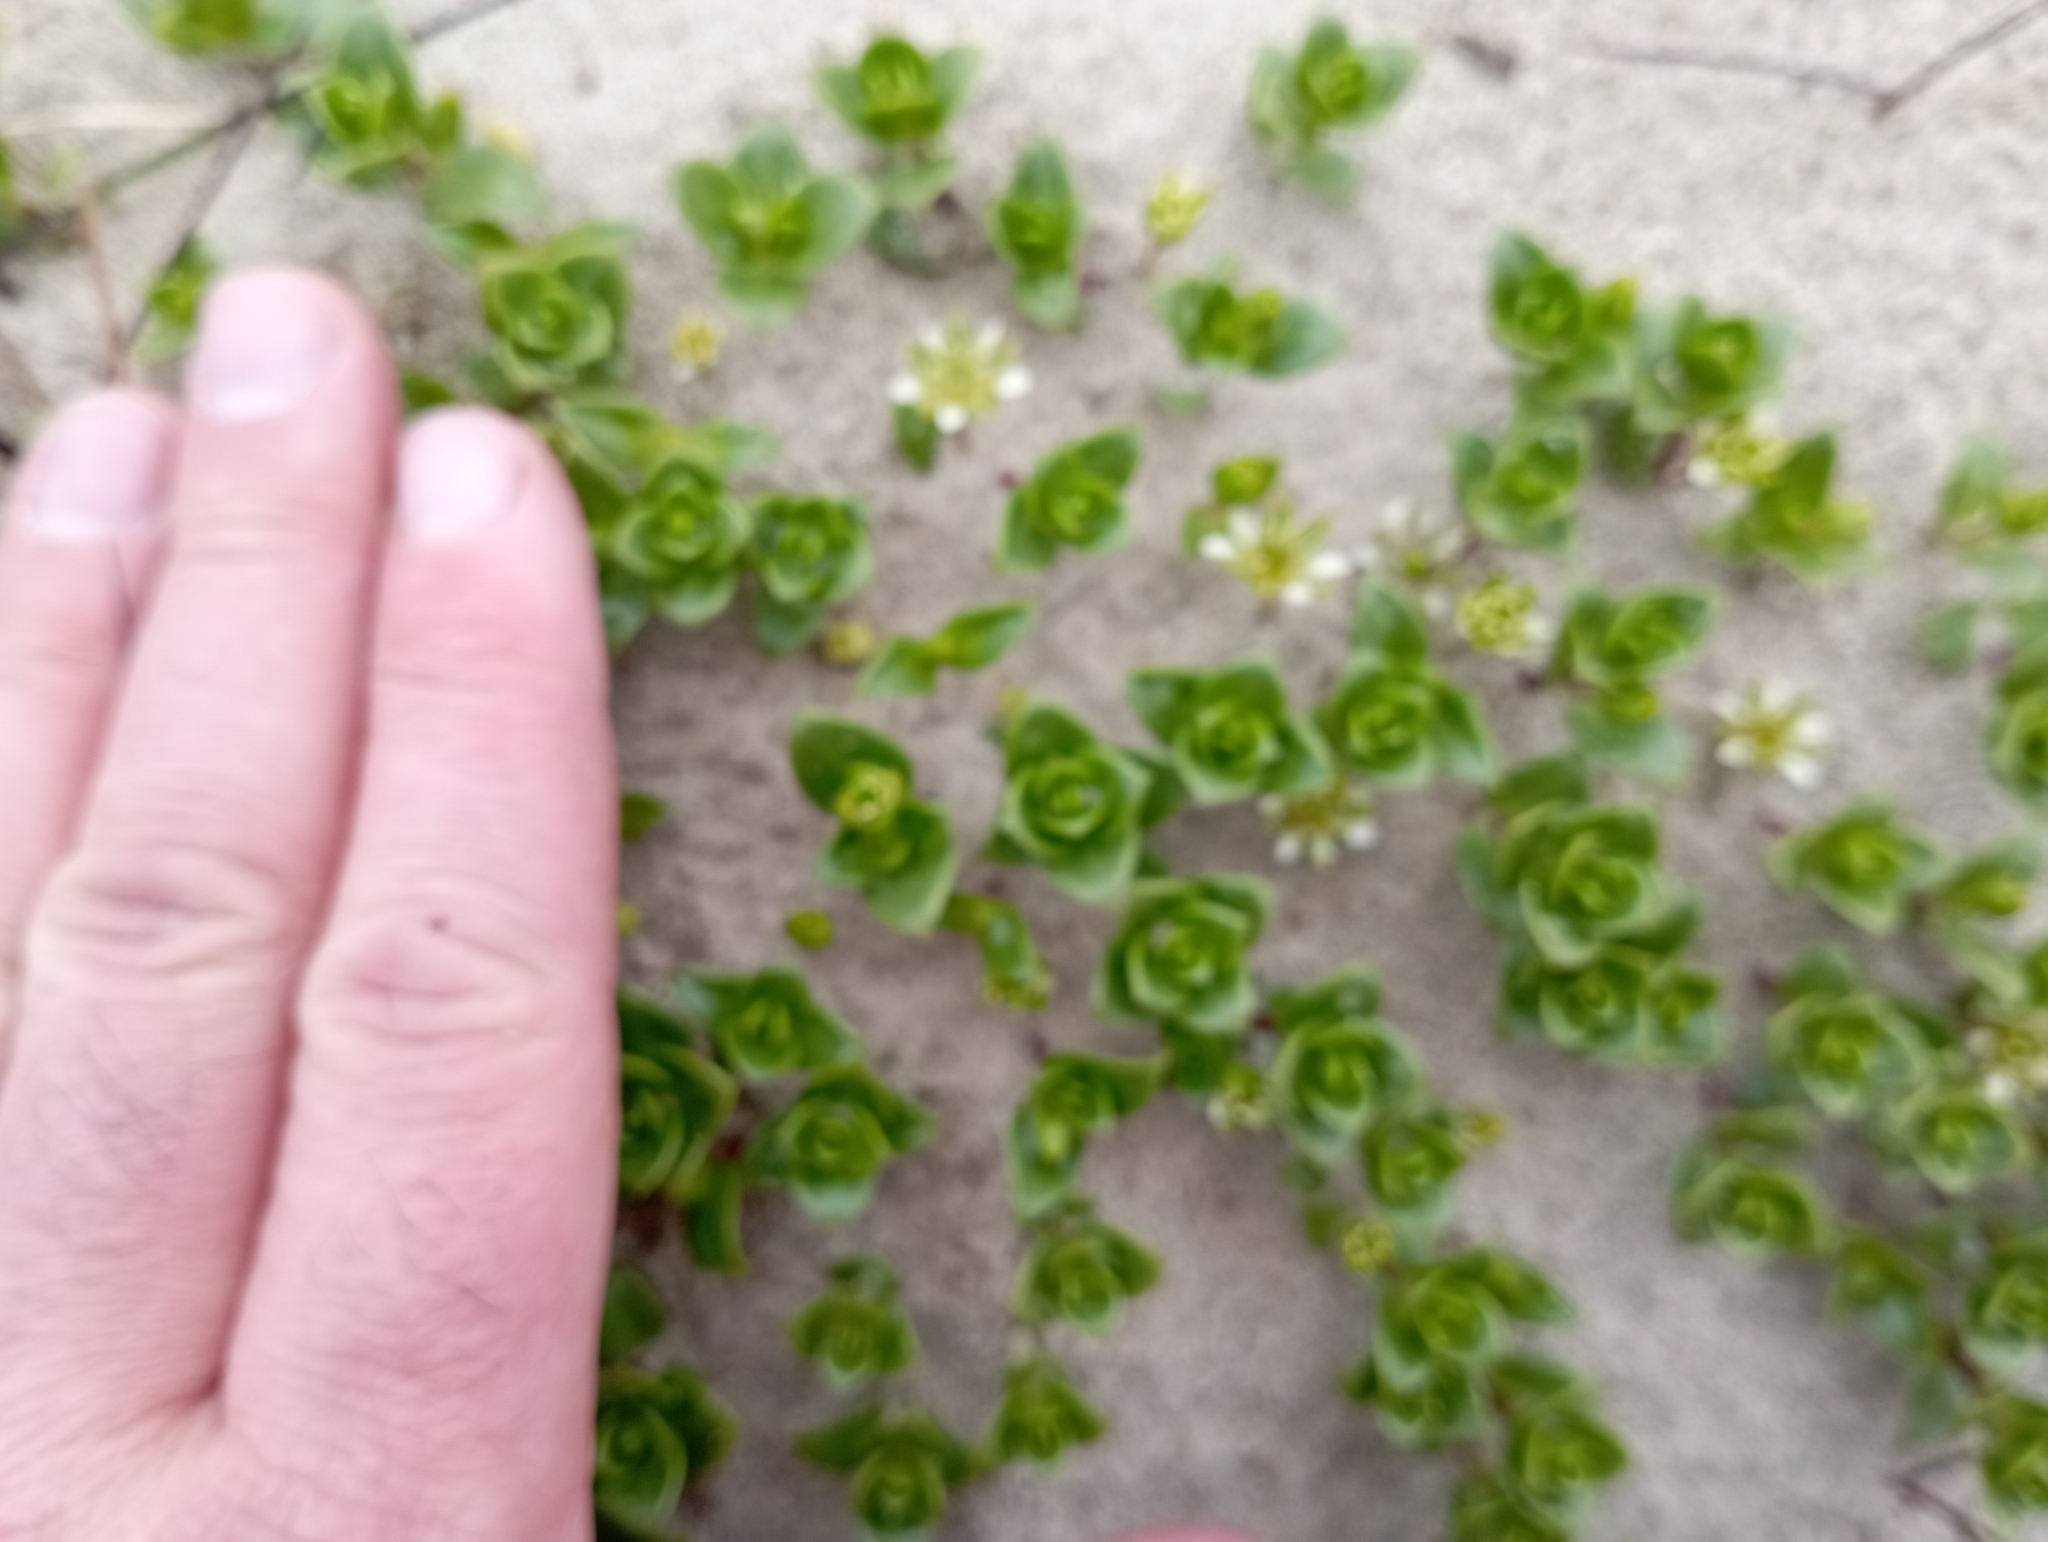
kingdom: Plantae
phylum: Tracheophyta
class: Magnoliopsida
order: Caryophyllales
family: Caryophyllaceae
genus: Honckenya
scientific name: Honckenya peploides
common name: Sea sandwort
